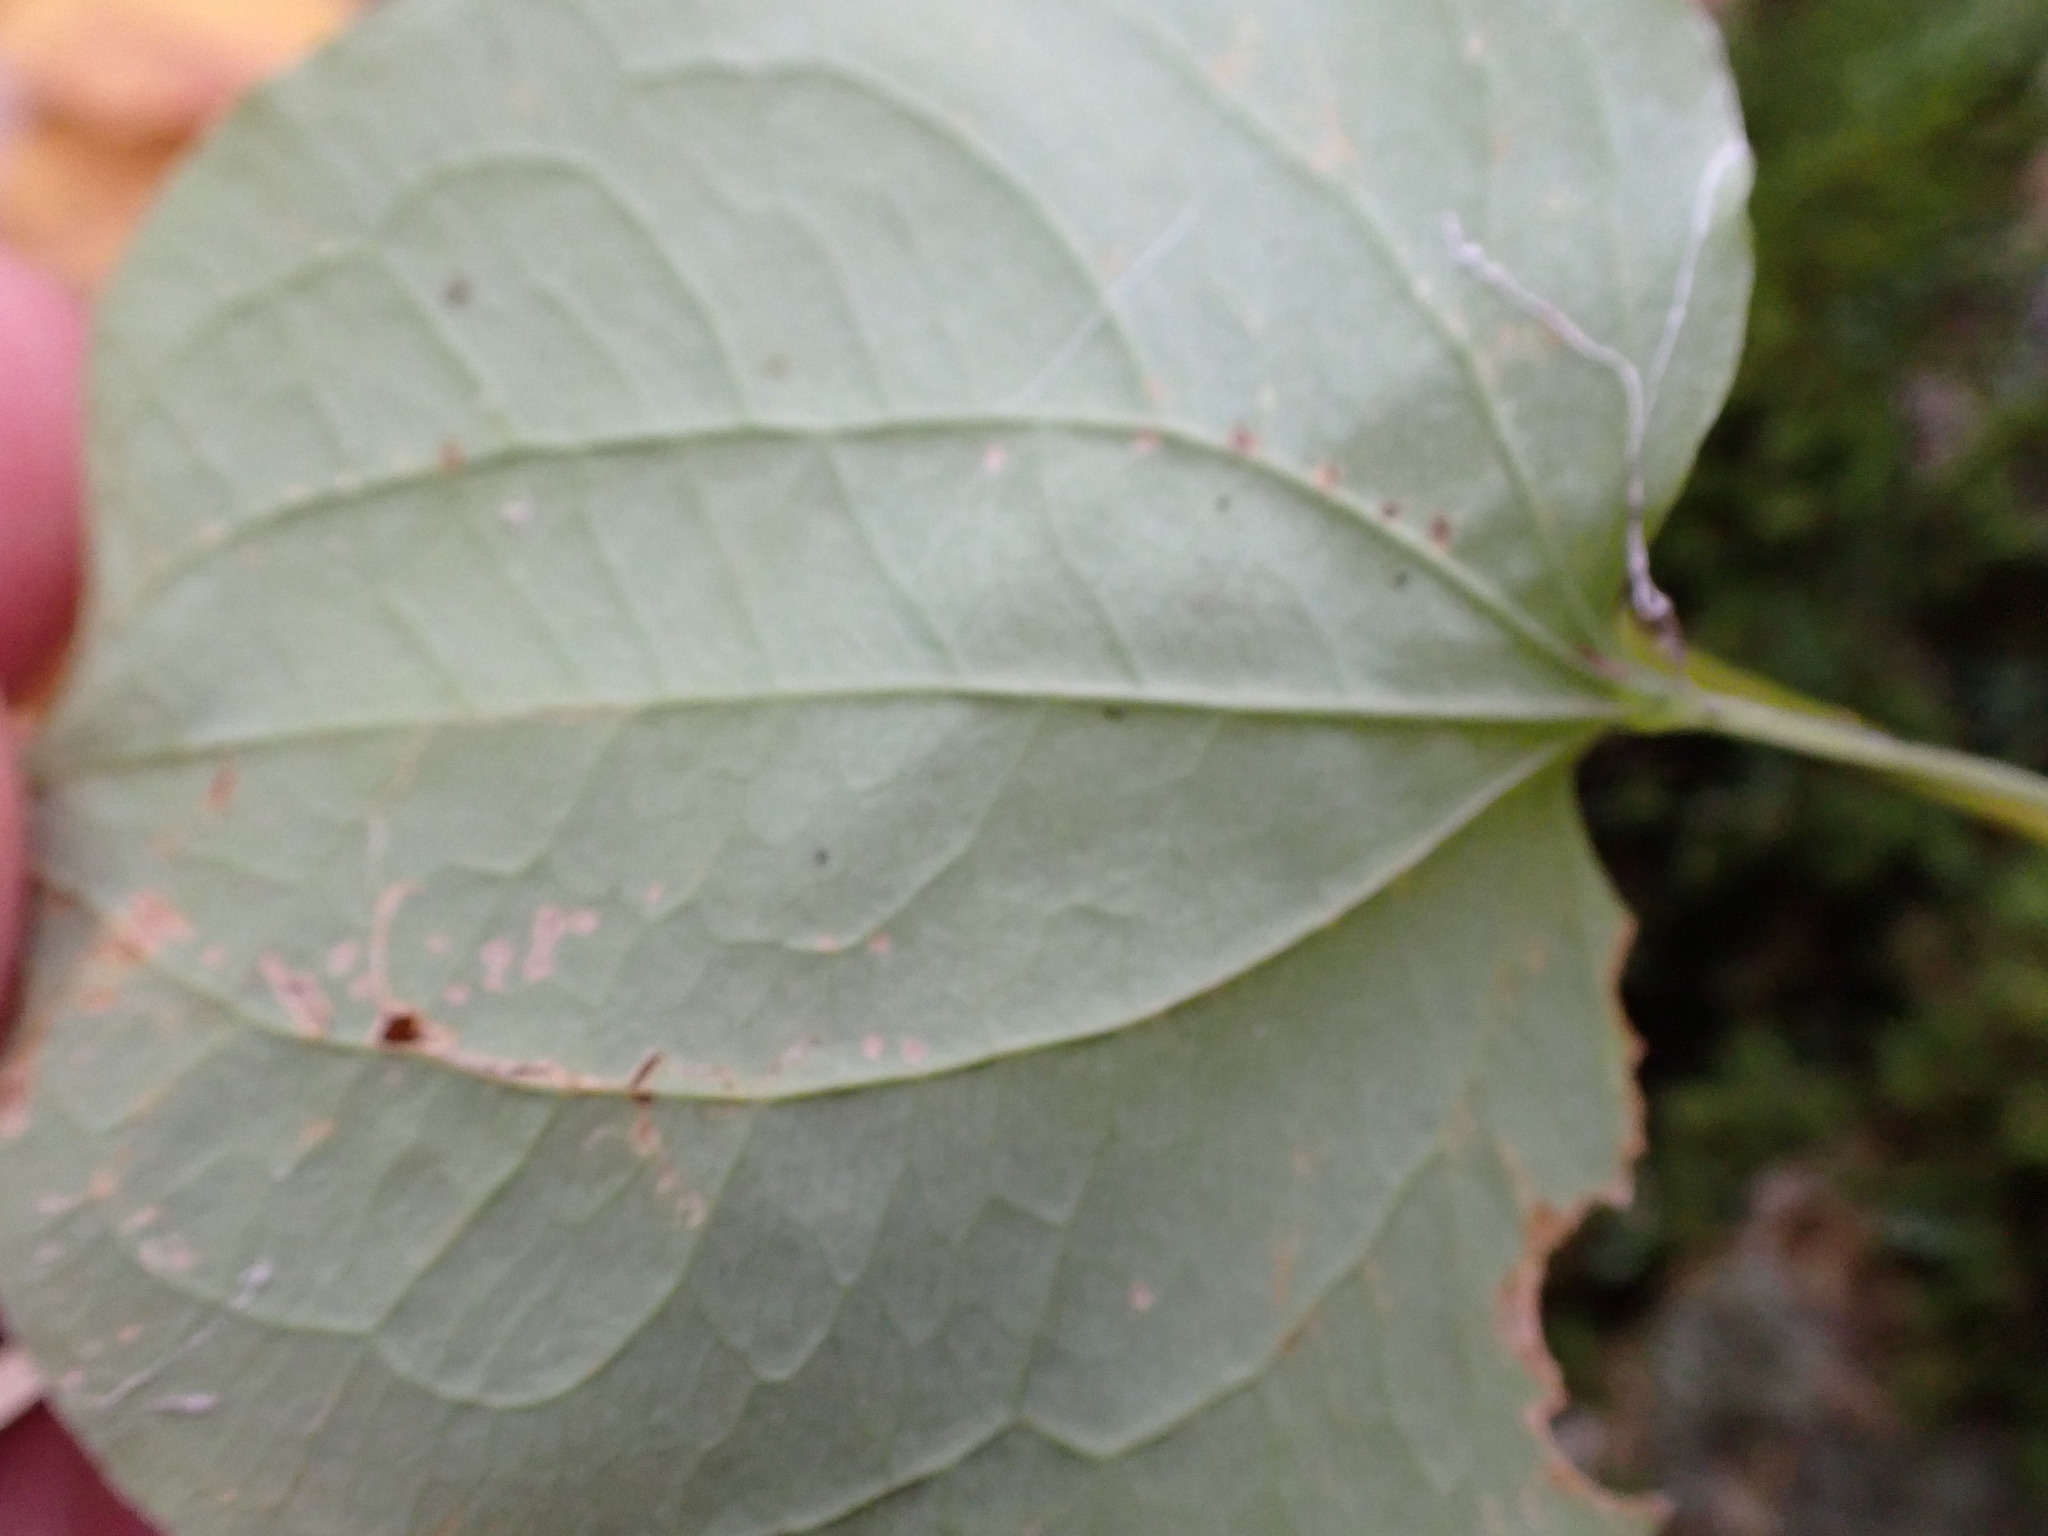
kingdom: Plantae
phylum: Tracheophyta
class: Liliopsida
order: Dioscoreales
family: Dioscoreaceae
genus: Dioscorea
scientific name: Dioscorea villosa
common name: Wild yam
